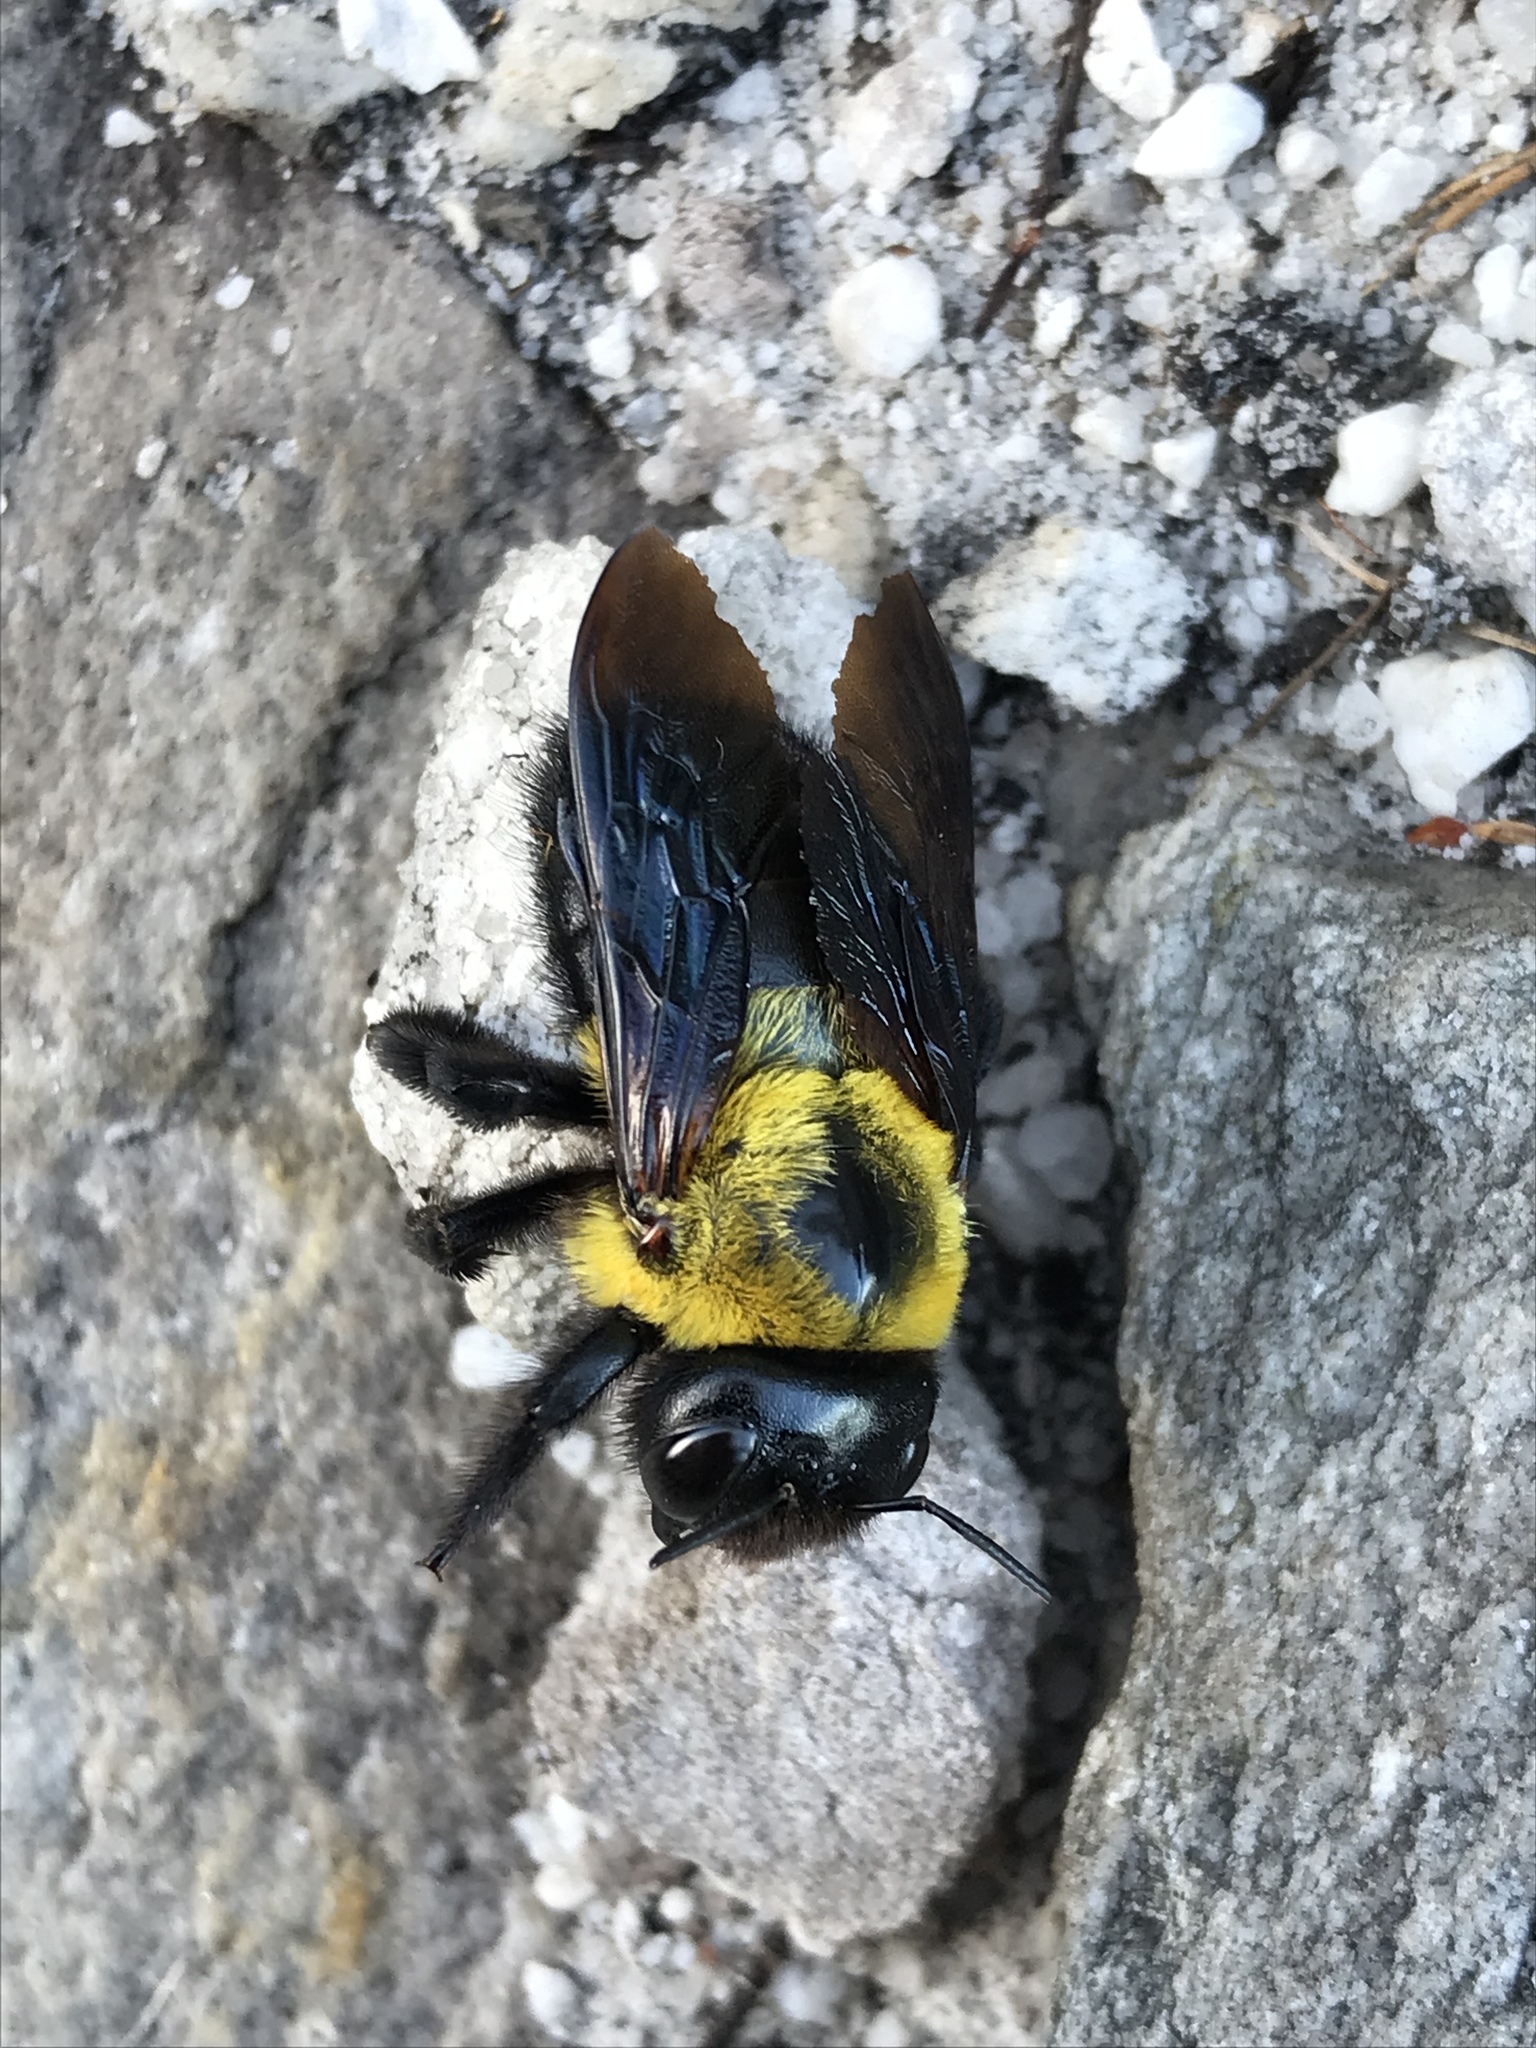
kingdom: Animalia
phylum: Arthropoda
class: Insecta
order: Hymenoptera
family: Apidae
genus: Xylocopa
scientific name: Xylocopa watmoughi
